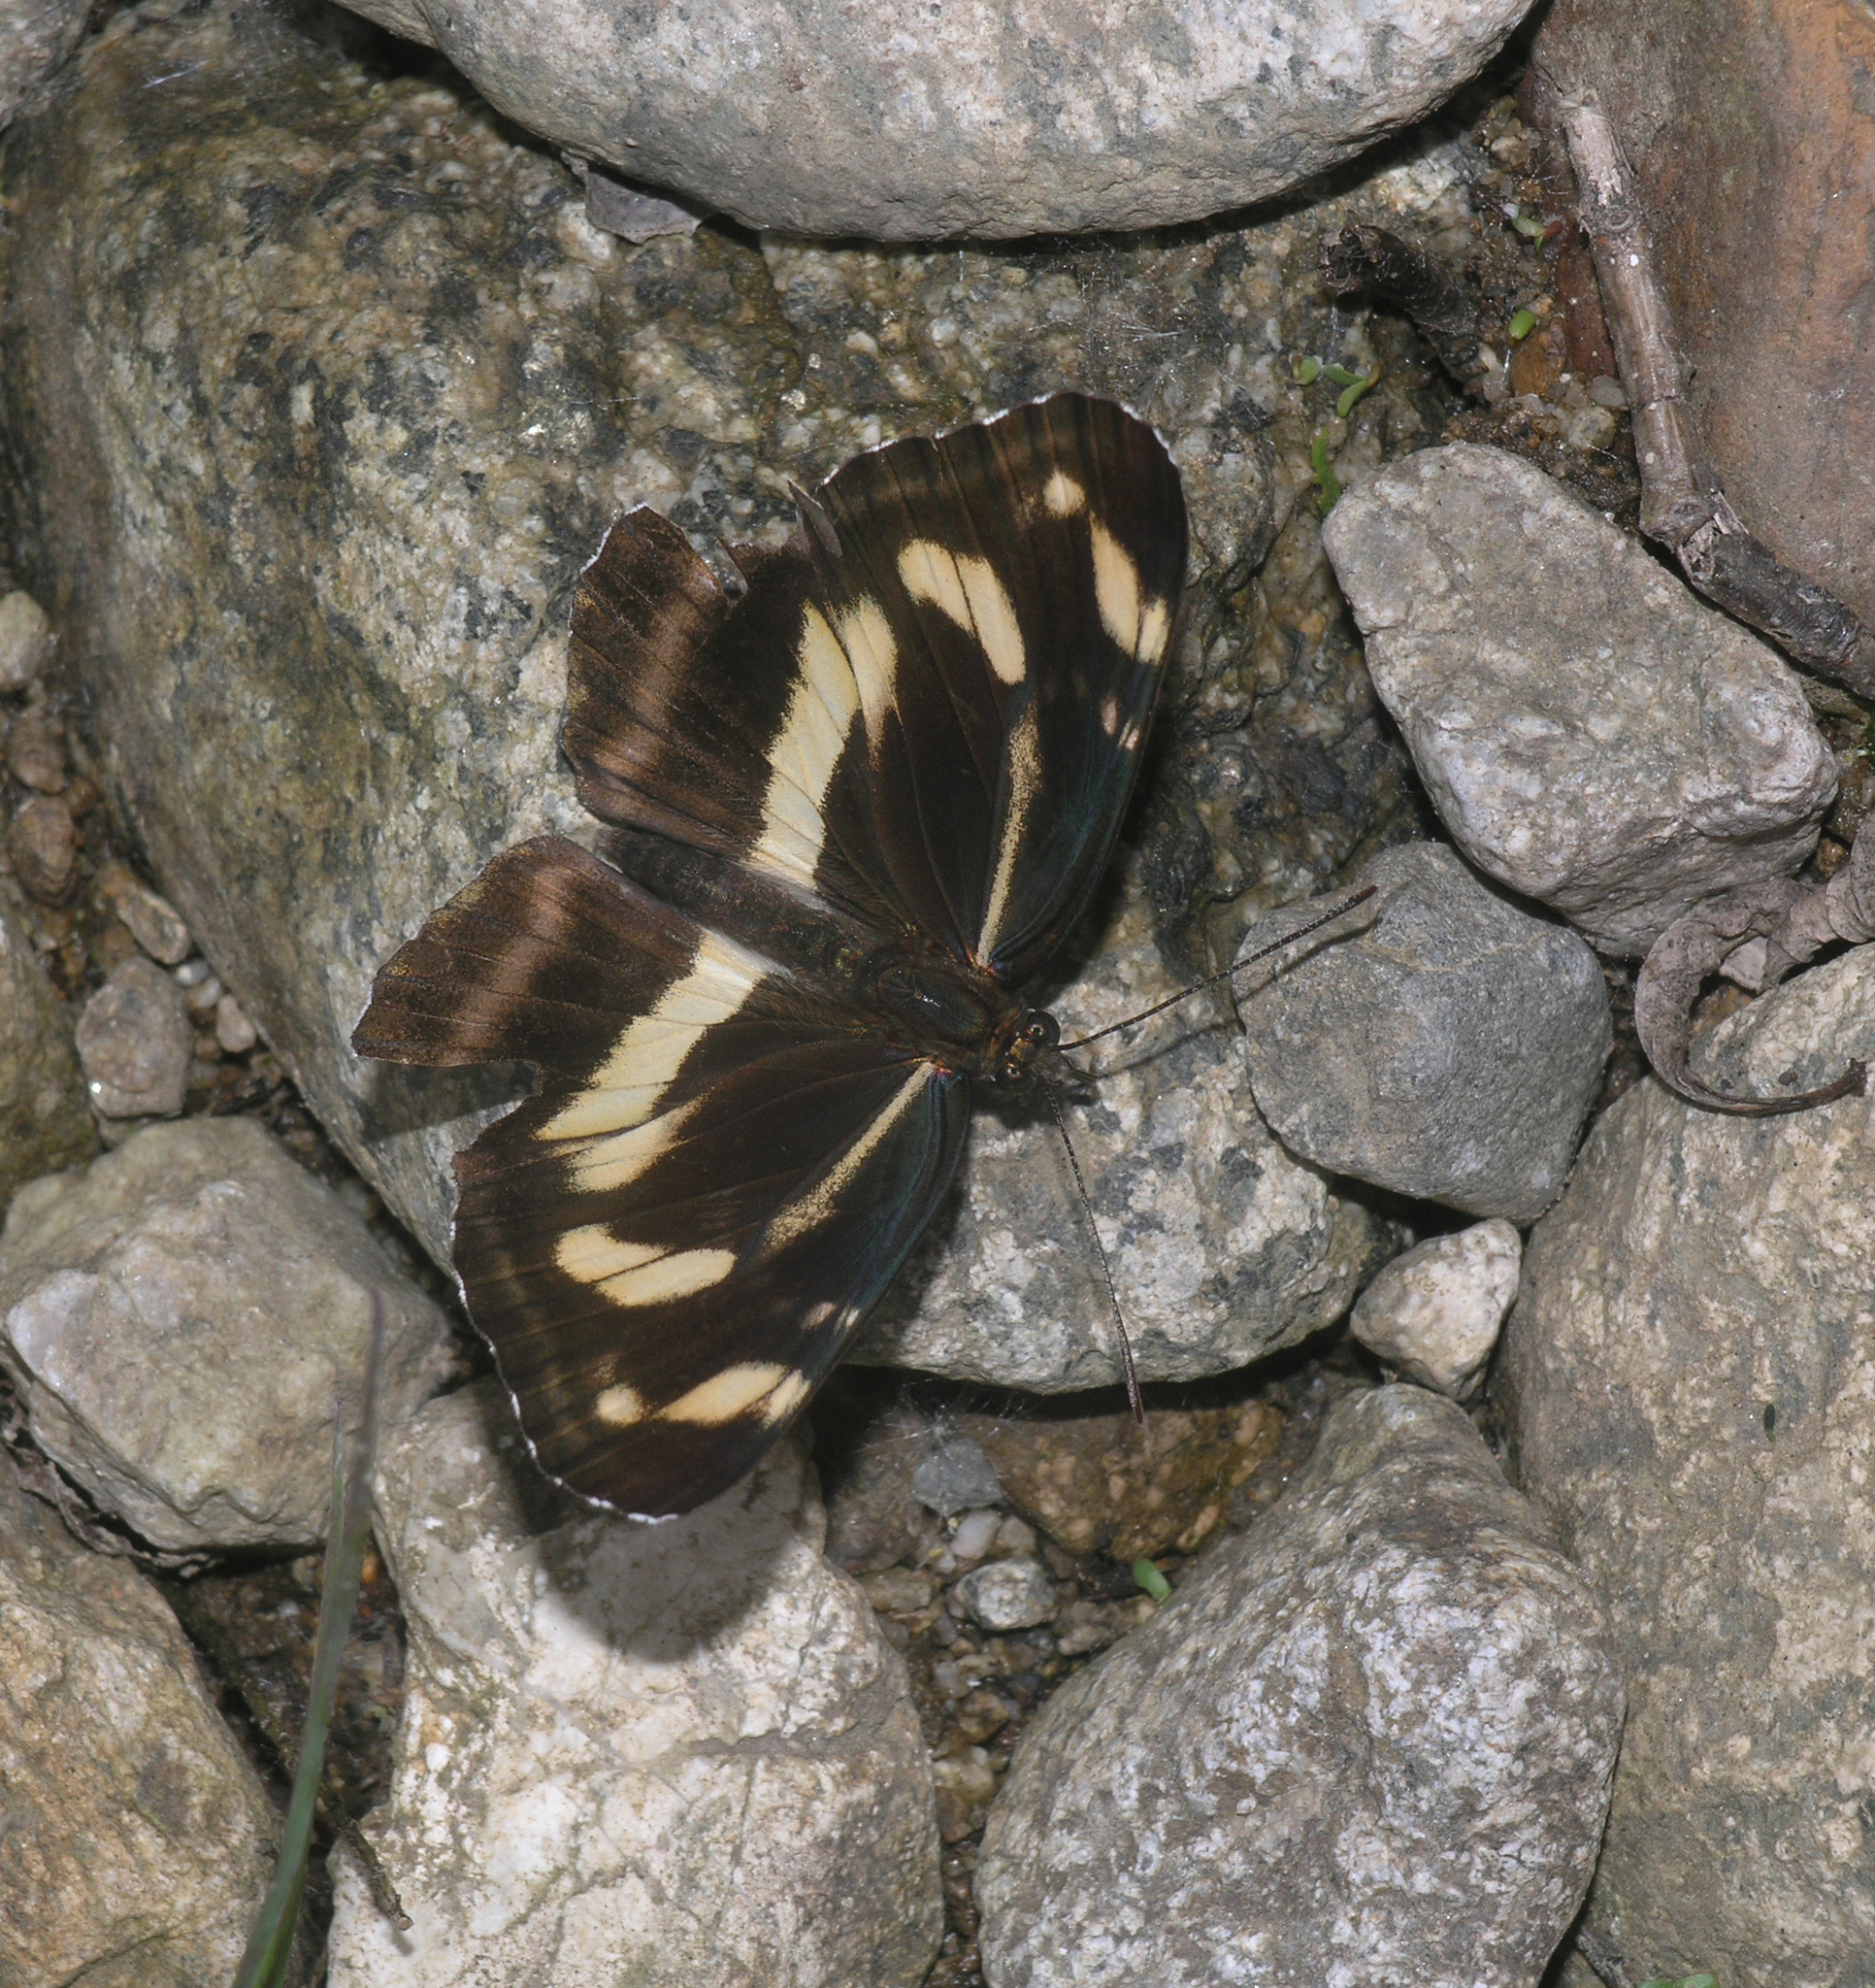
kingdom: Animalia
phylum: Arthropoda
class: Insecta
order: Lepidoptera
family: Nymphalidae
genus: Neptis
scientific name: Neptis thisbe
